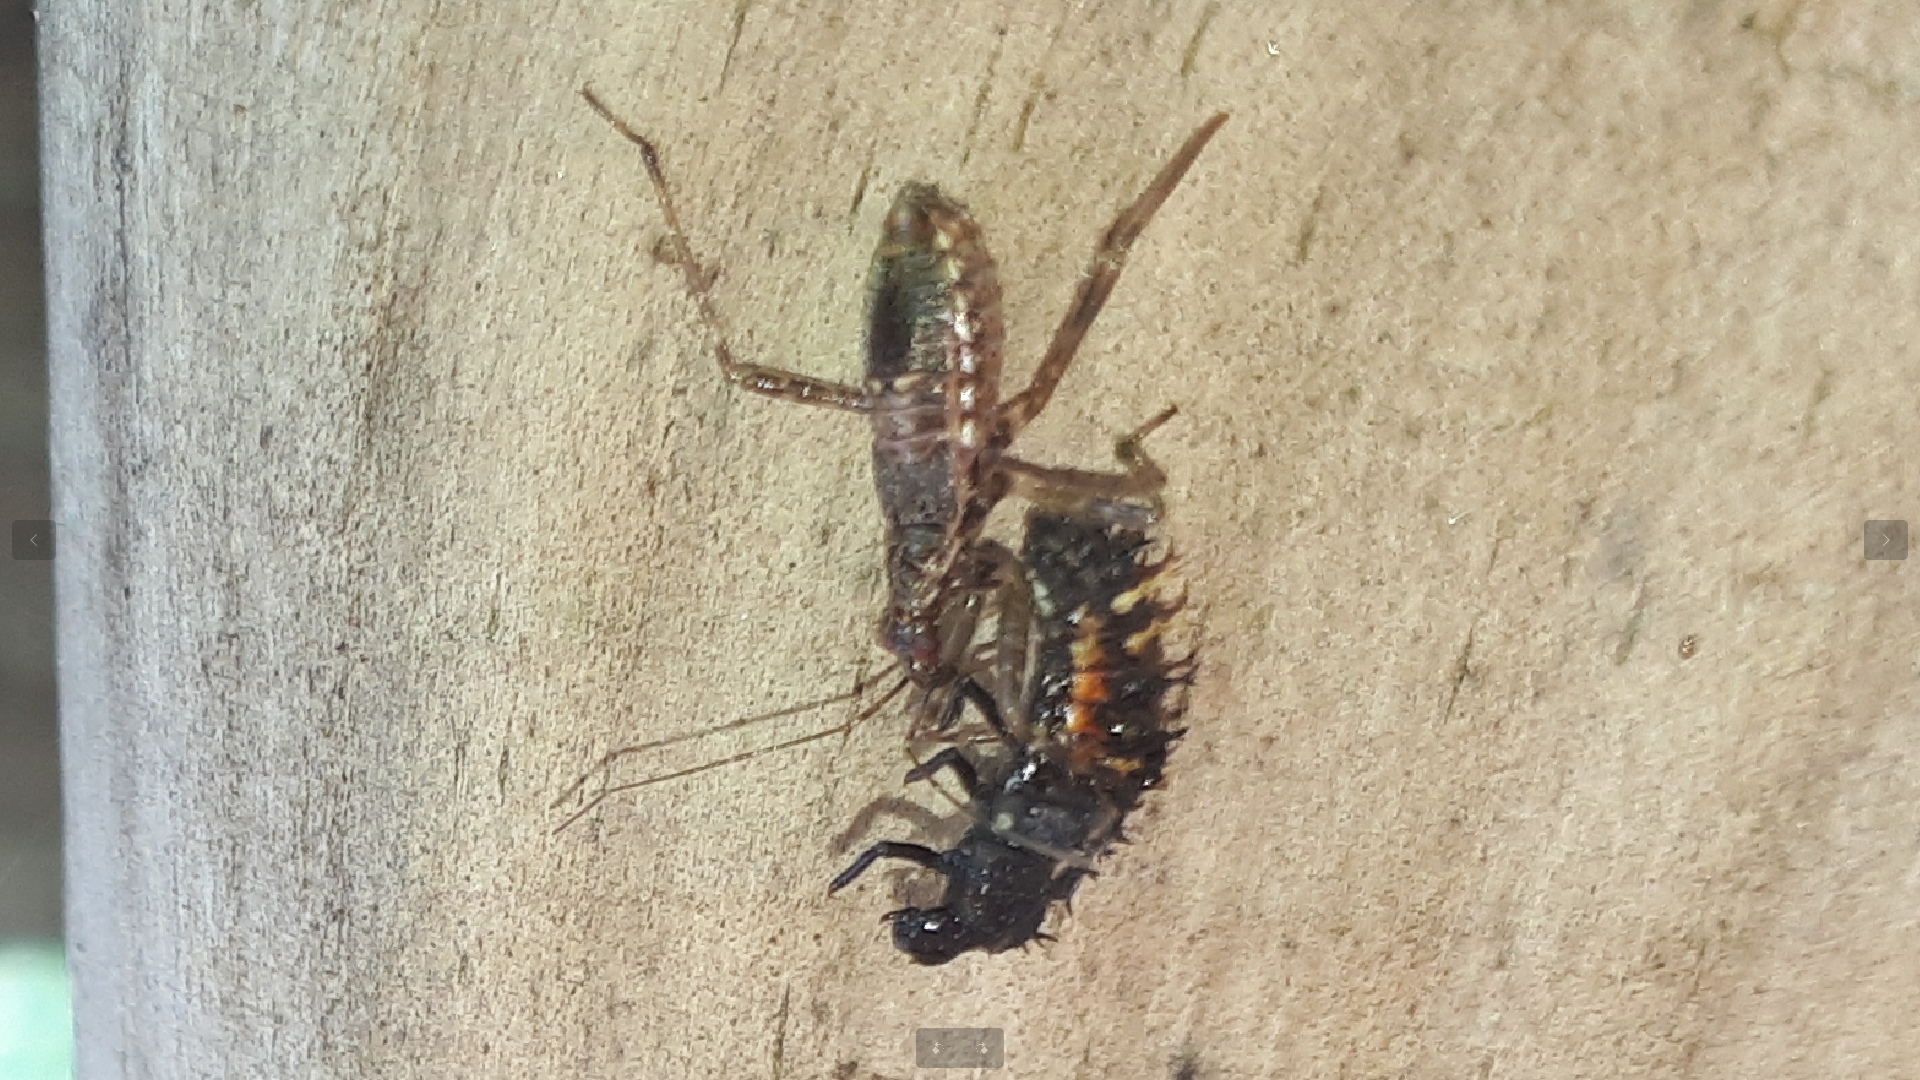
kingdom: Animalia
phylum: Arthropoda
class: Insecta
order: Hemiptera
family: Nabidae
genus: Himacerus
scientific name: Himacerus apterus
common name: Tree damsel bug
